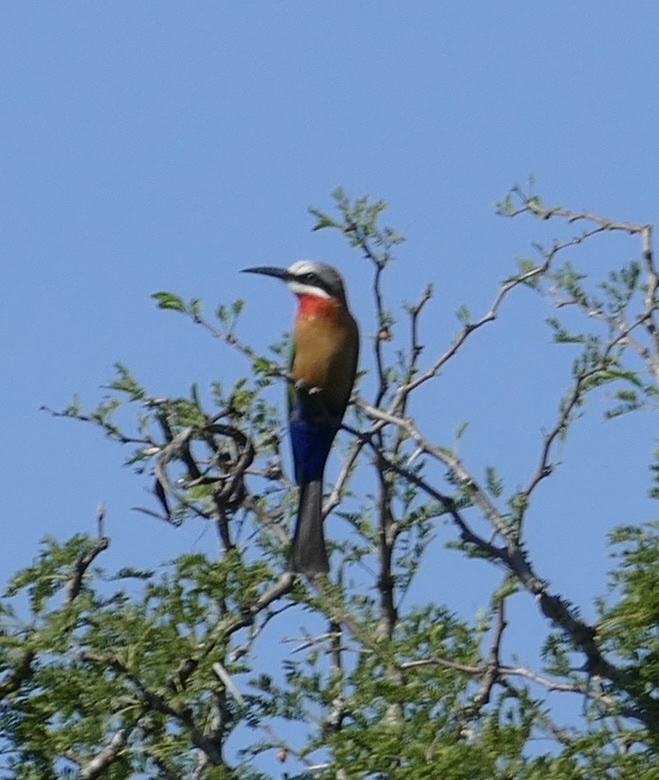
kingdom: Animalia
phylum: Chordata
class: Aves
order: Coraciiformes
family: Meropidae
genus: Merops
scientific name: Merops bullockoides
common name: White-fronted bee-eater
